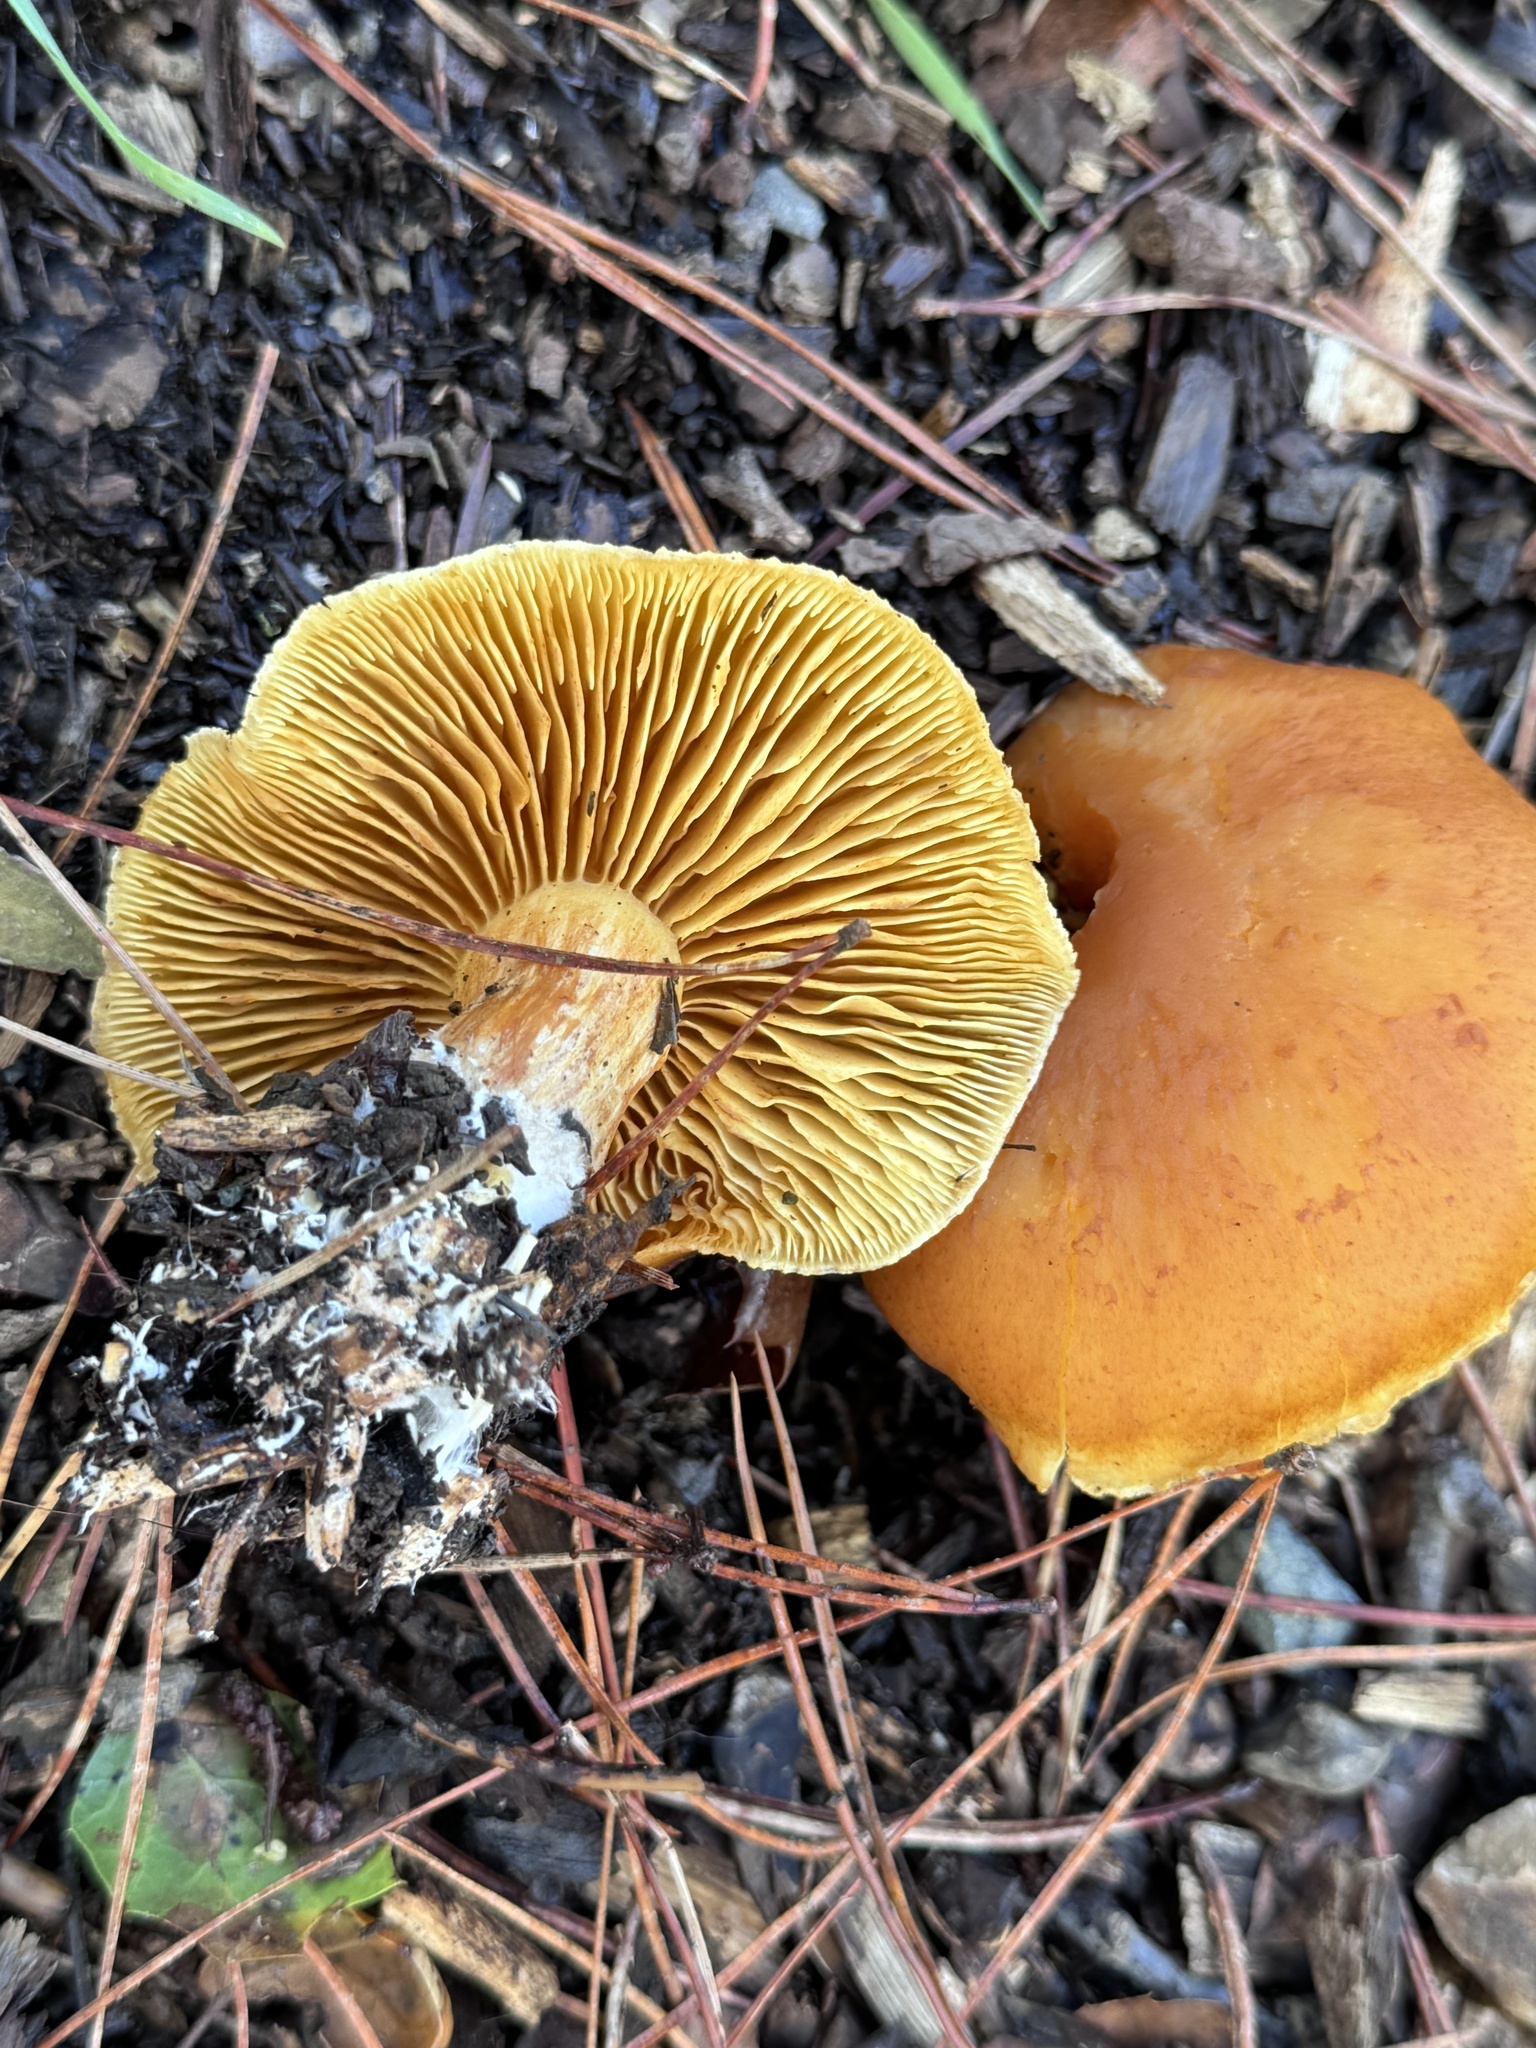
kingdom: Fungi
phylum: Basidiomycota
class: Agaricomycetes
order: Agaricales
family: Hymenogastraceae
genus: Gymnopilus
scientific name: Gymnopilus aurantiophyllus
